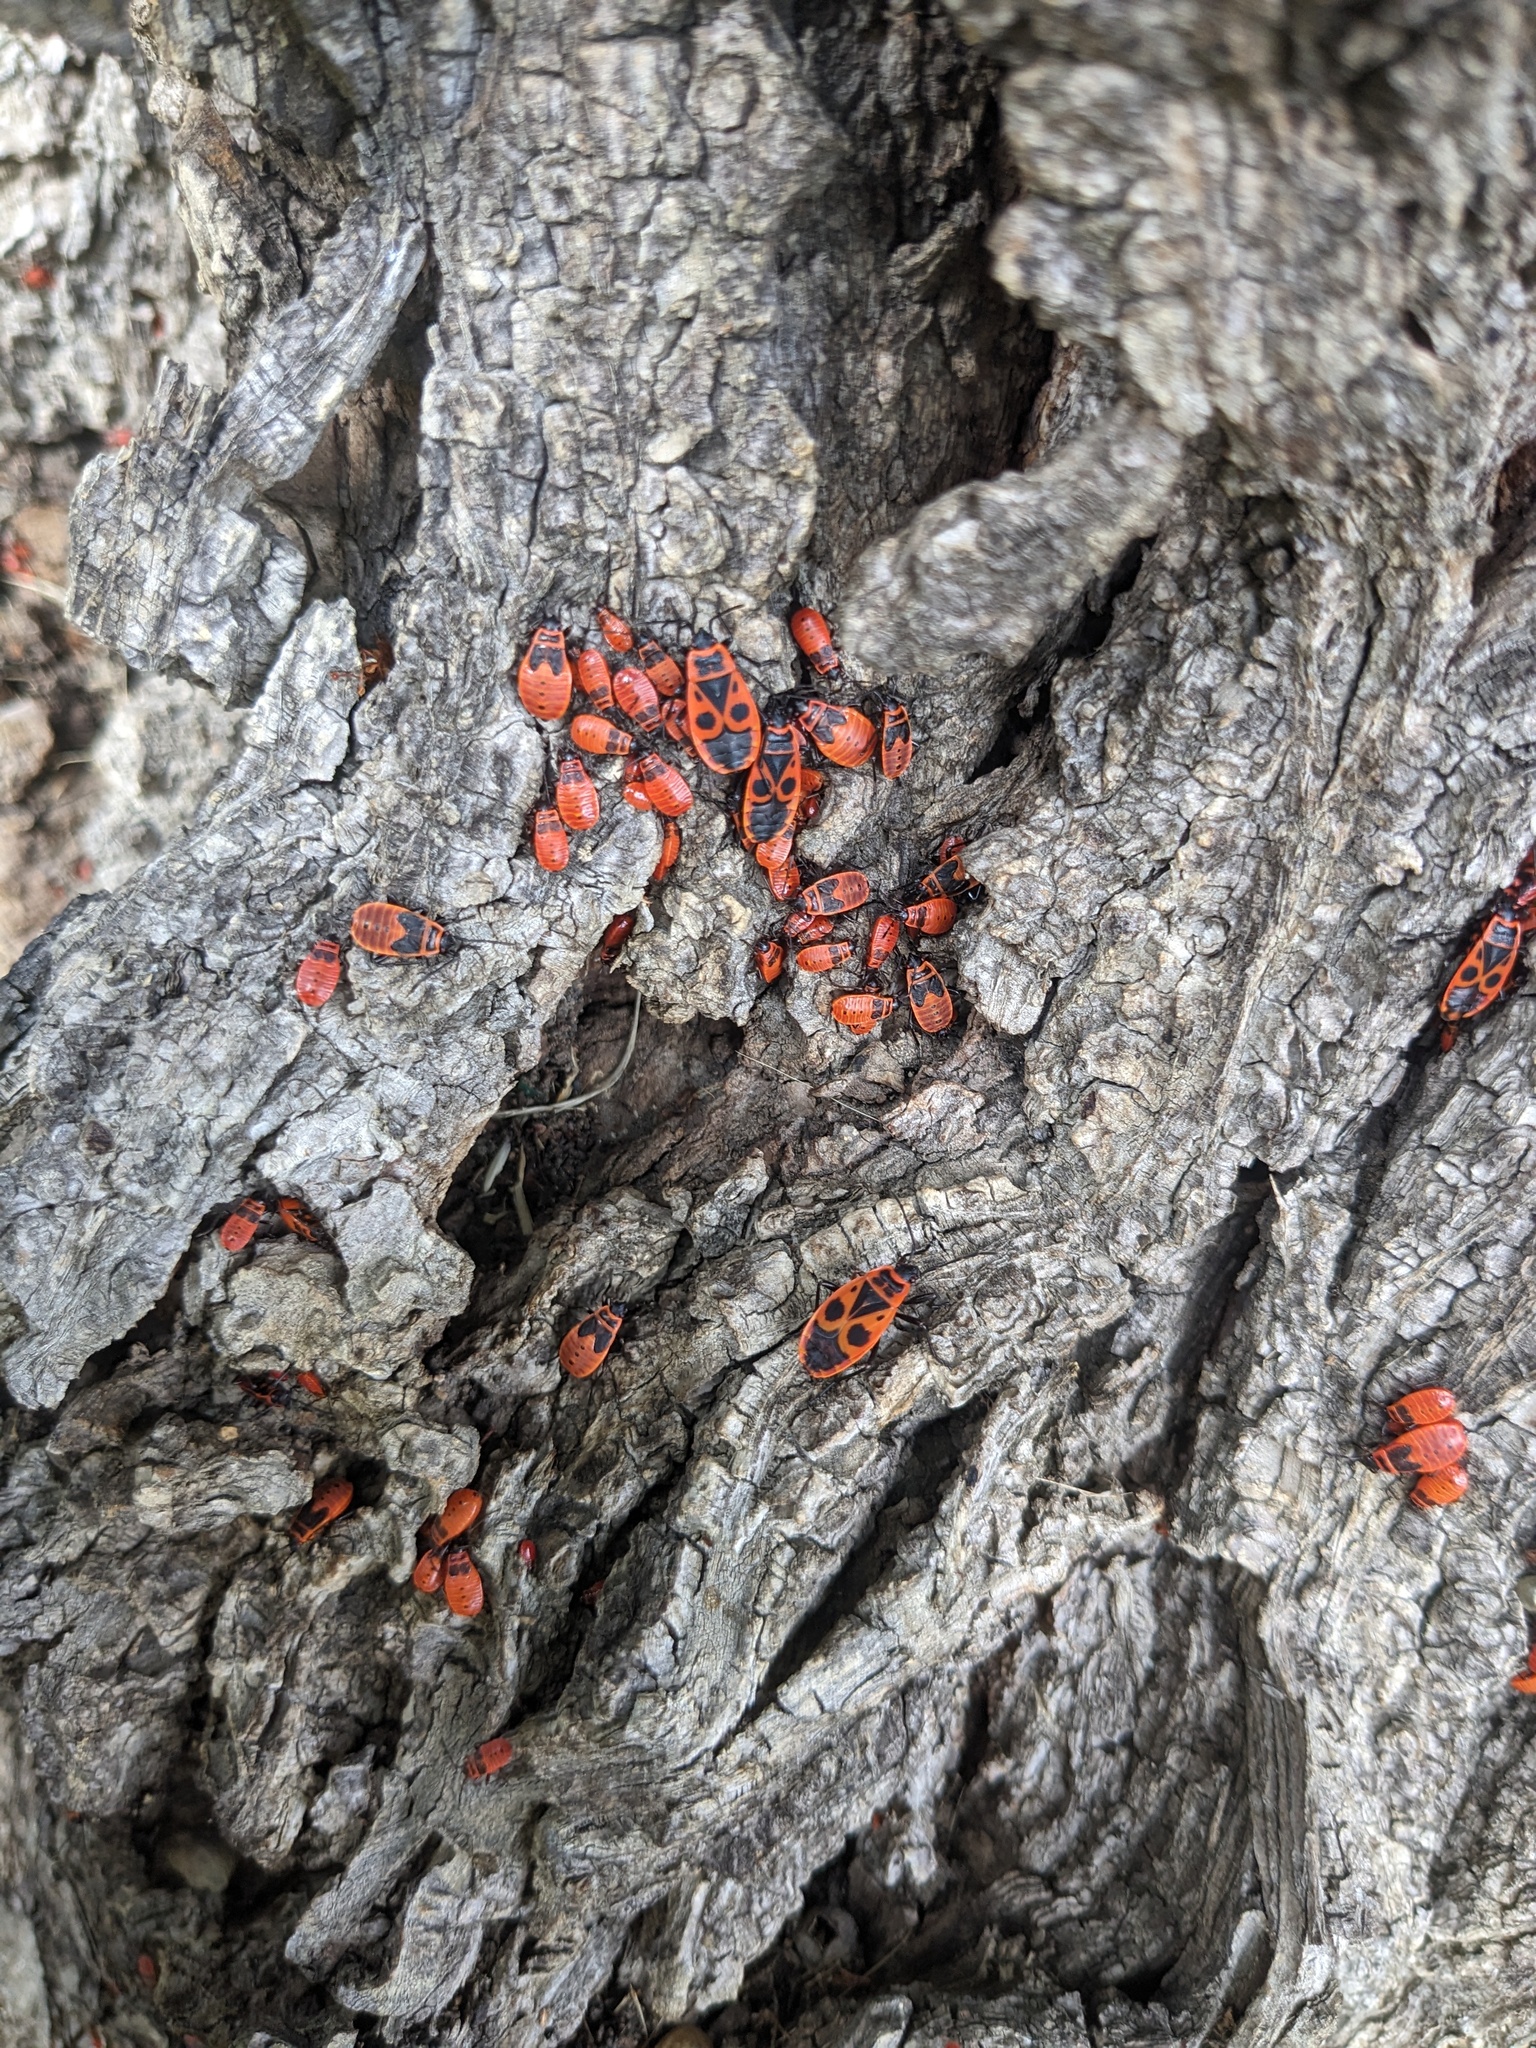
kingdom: Animalia
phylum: Arthropoda
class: Insecta
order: Hemiptera
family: Pyrrhocoridae
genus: Pyrrhocoris
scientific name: Pyrrhocoris apterus
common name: Firebug
